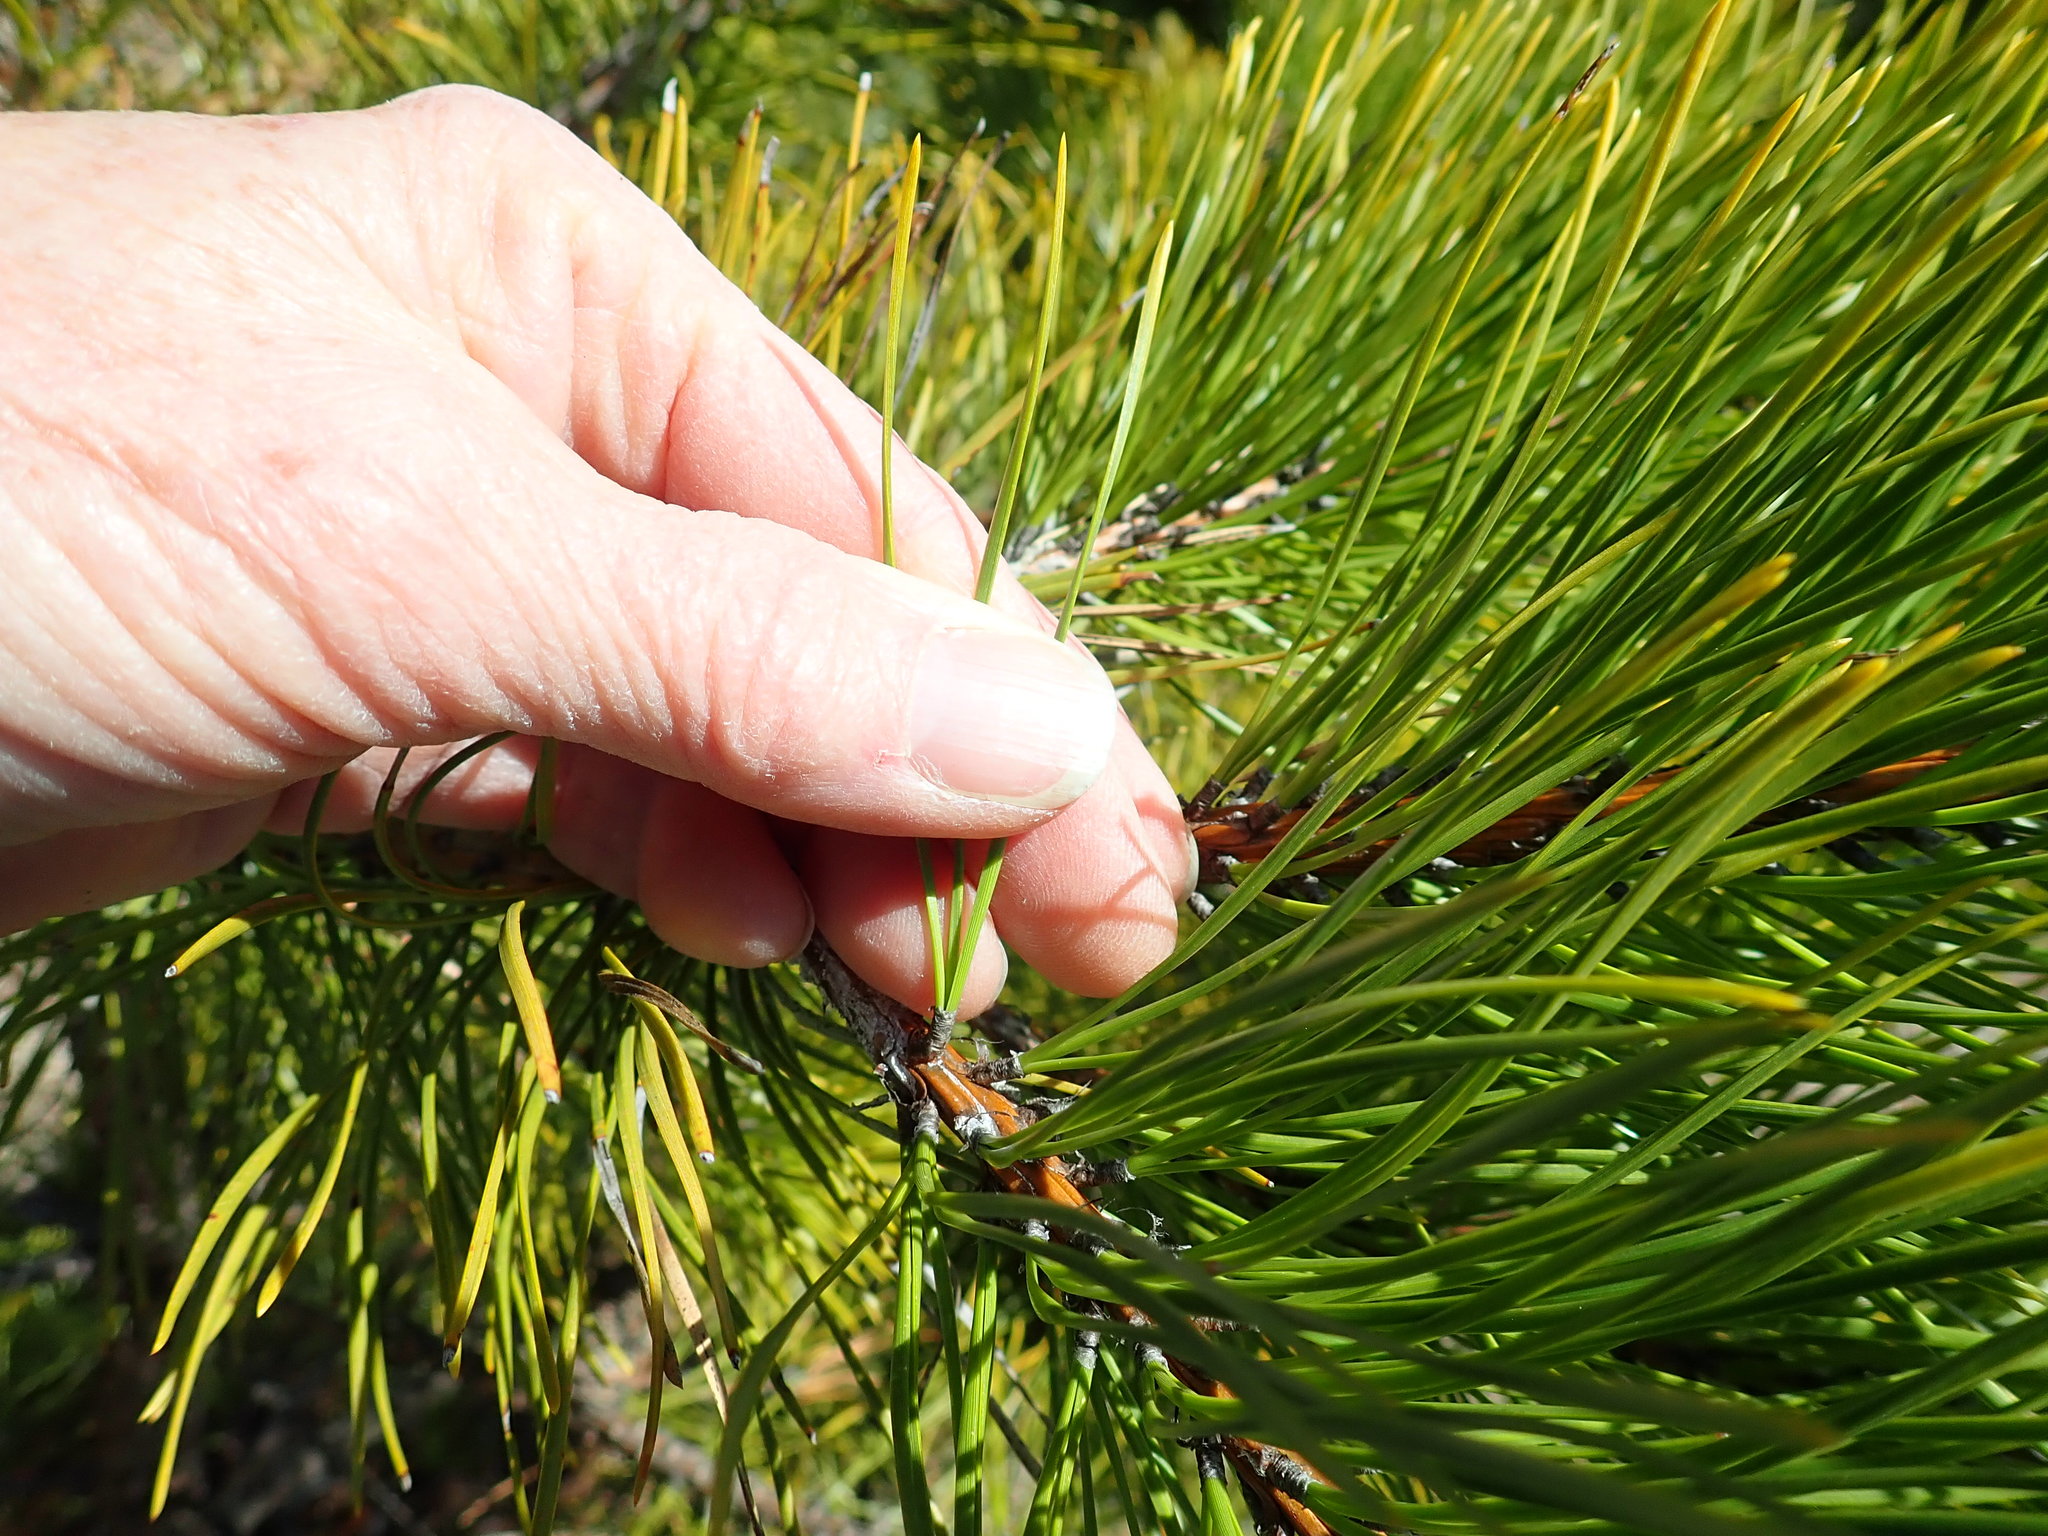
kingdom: Plantae
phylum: Tracheophyta
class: Pinopsida
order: Pinales
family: Pinaceae
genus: Pinus
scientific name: Pinus rigida
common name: Pitch pine
